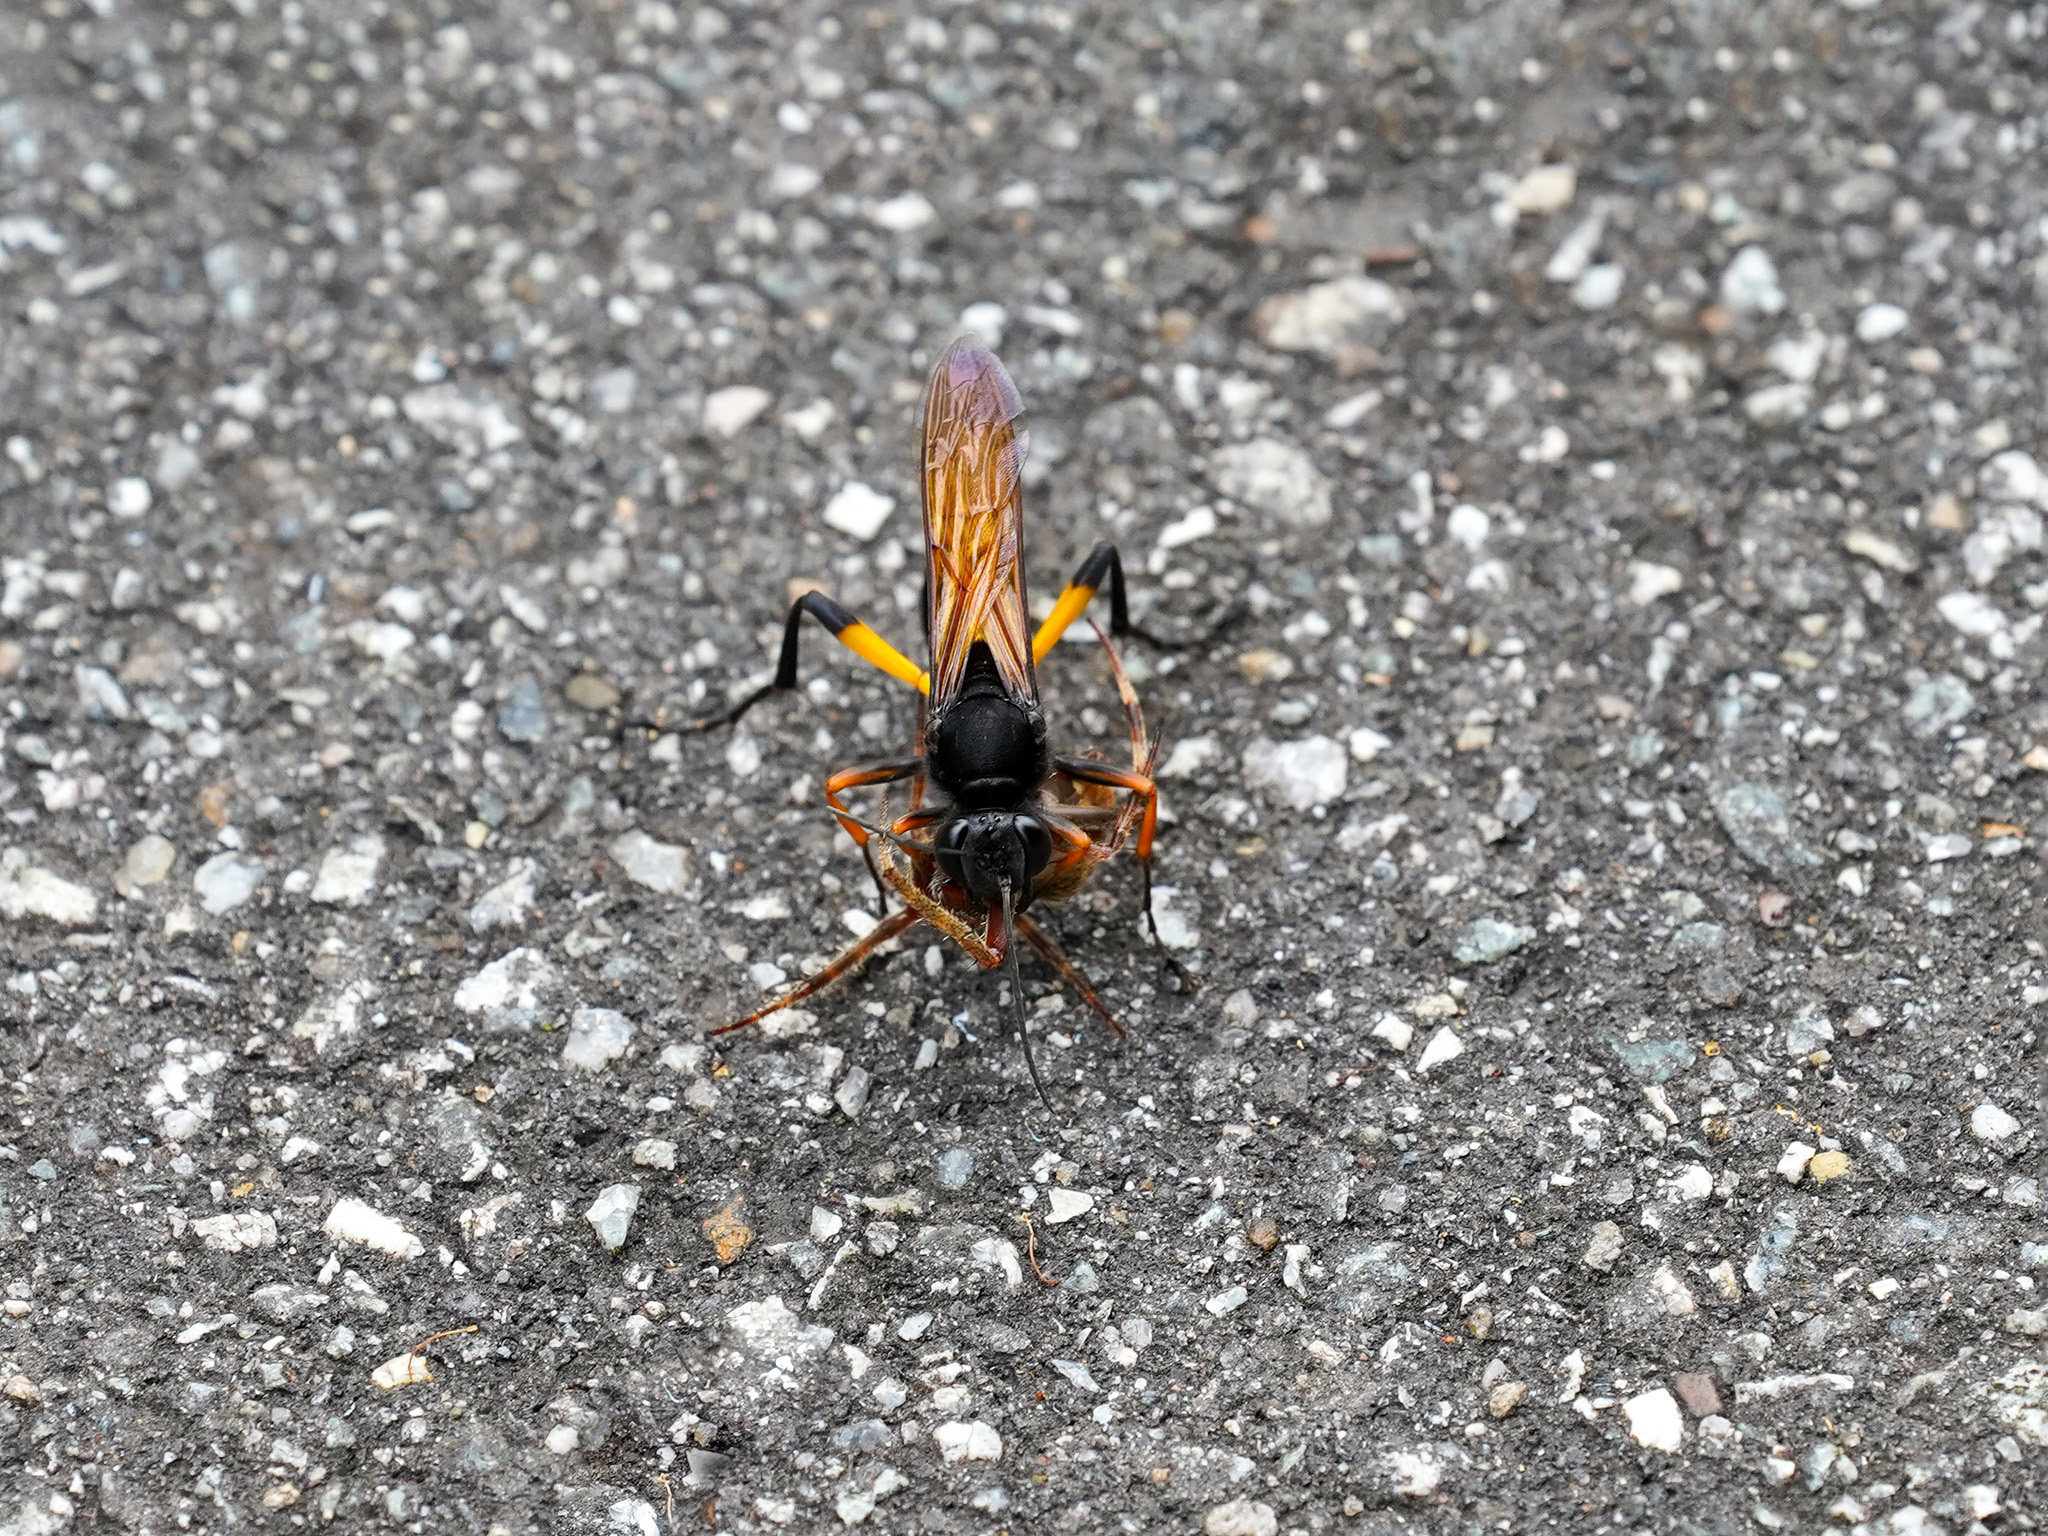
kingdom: Animalia
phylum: Arthropoda
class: Insecta
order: Hymenoptera
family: Sphecidae
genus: Sceliphron
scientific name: Sceliphron javanum
